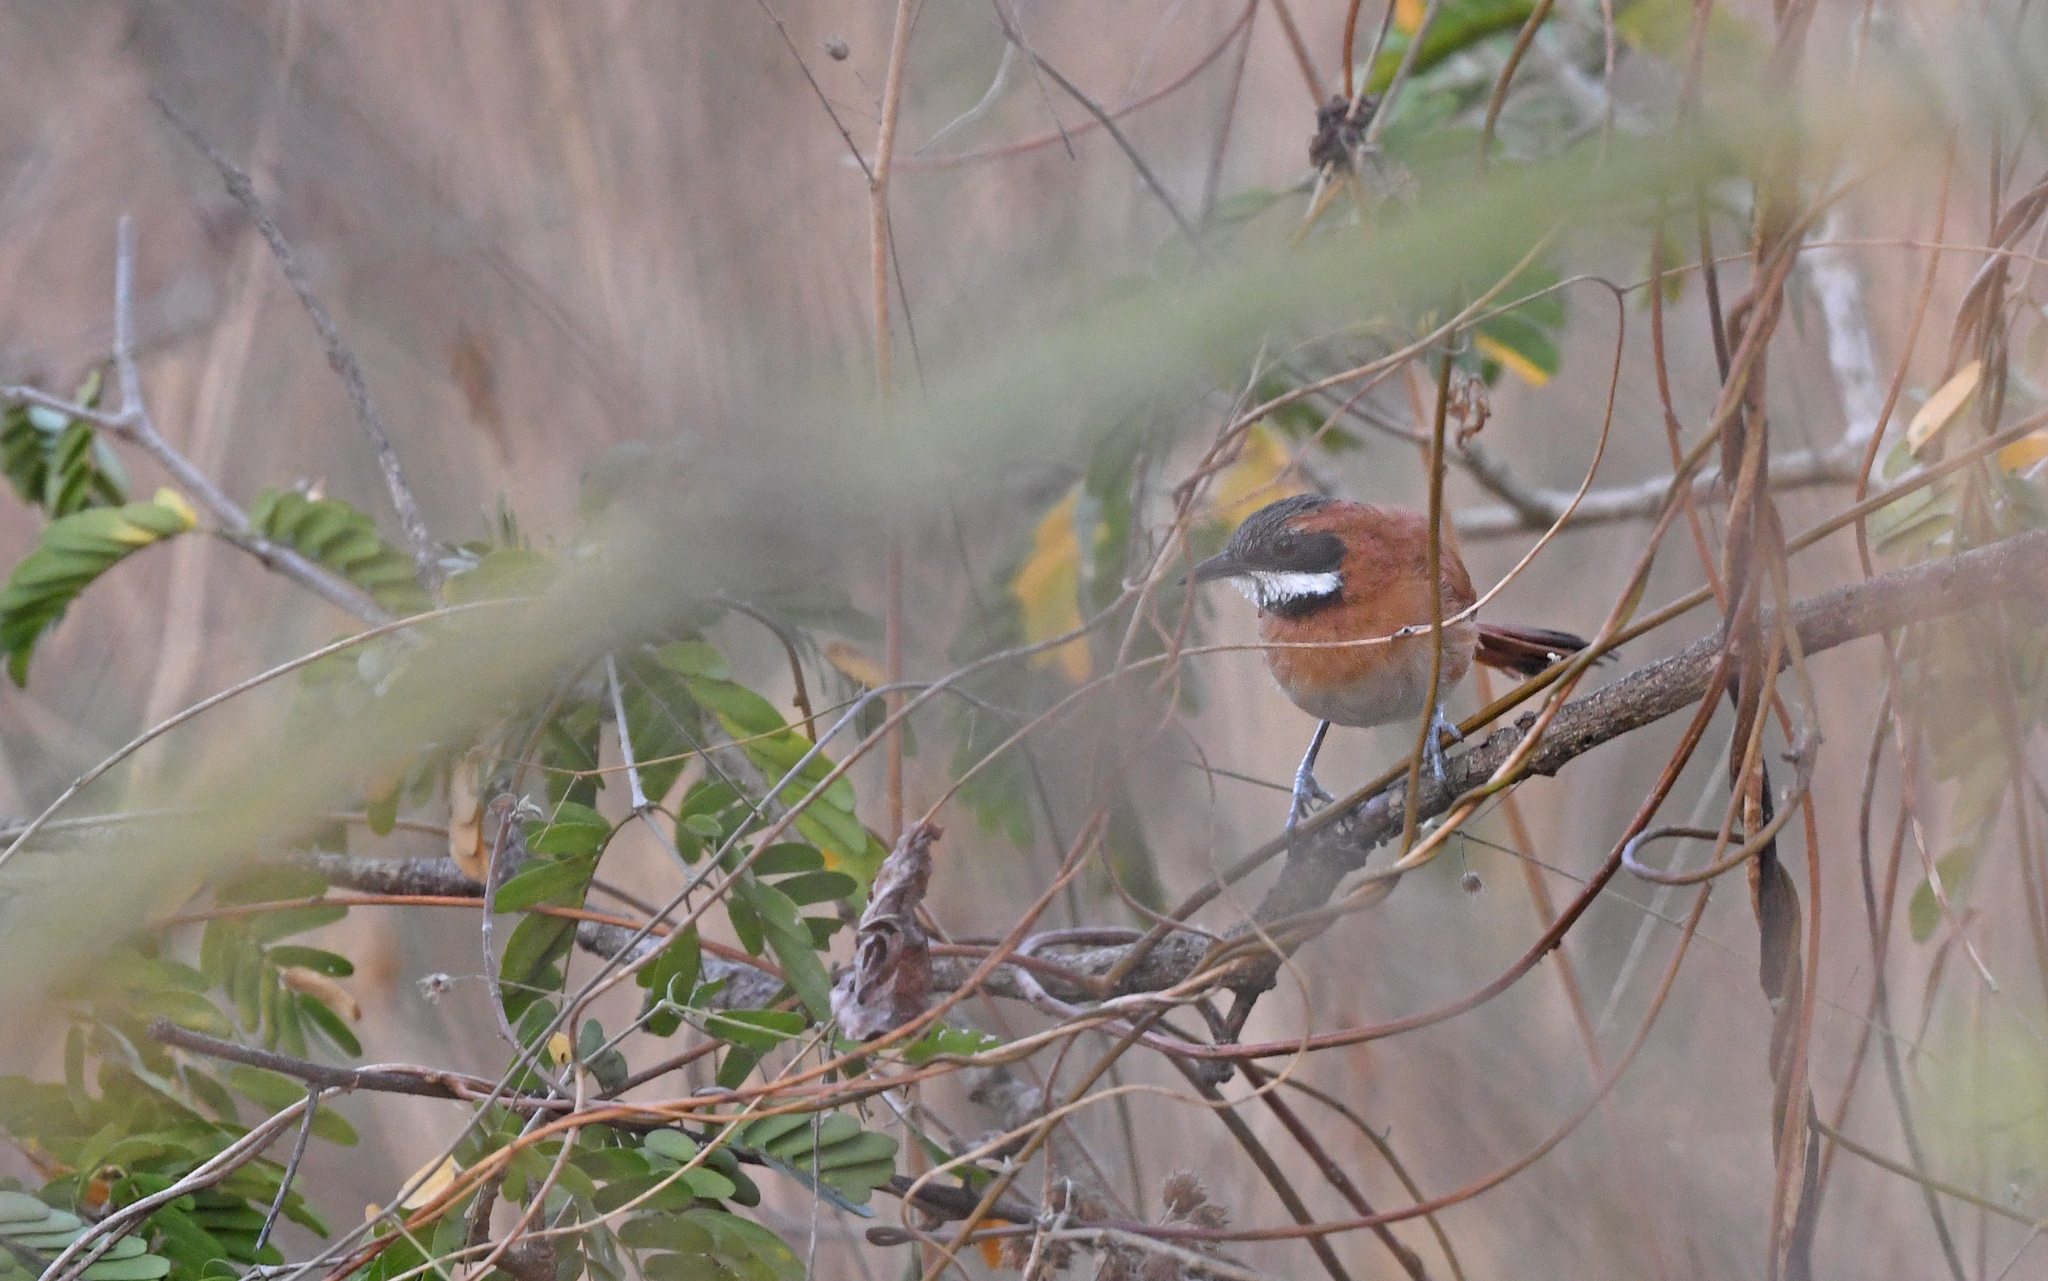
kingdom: Animalia
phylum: Chordata
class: Aves
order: Passeriformes
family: Furnariidae
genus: Synallaxis
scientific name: Synallaxis candei
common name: White-whiskered spinetail
